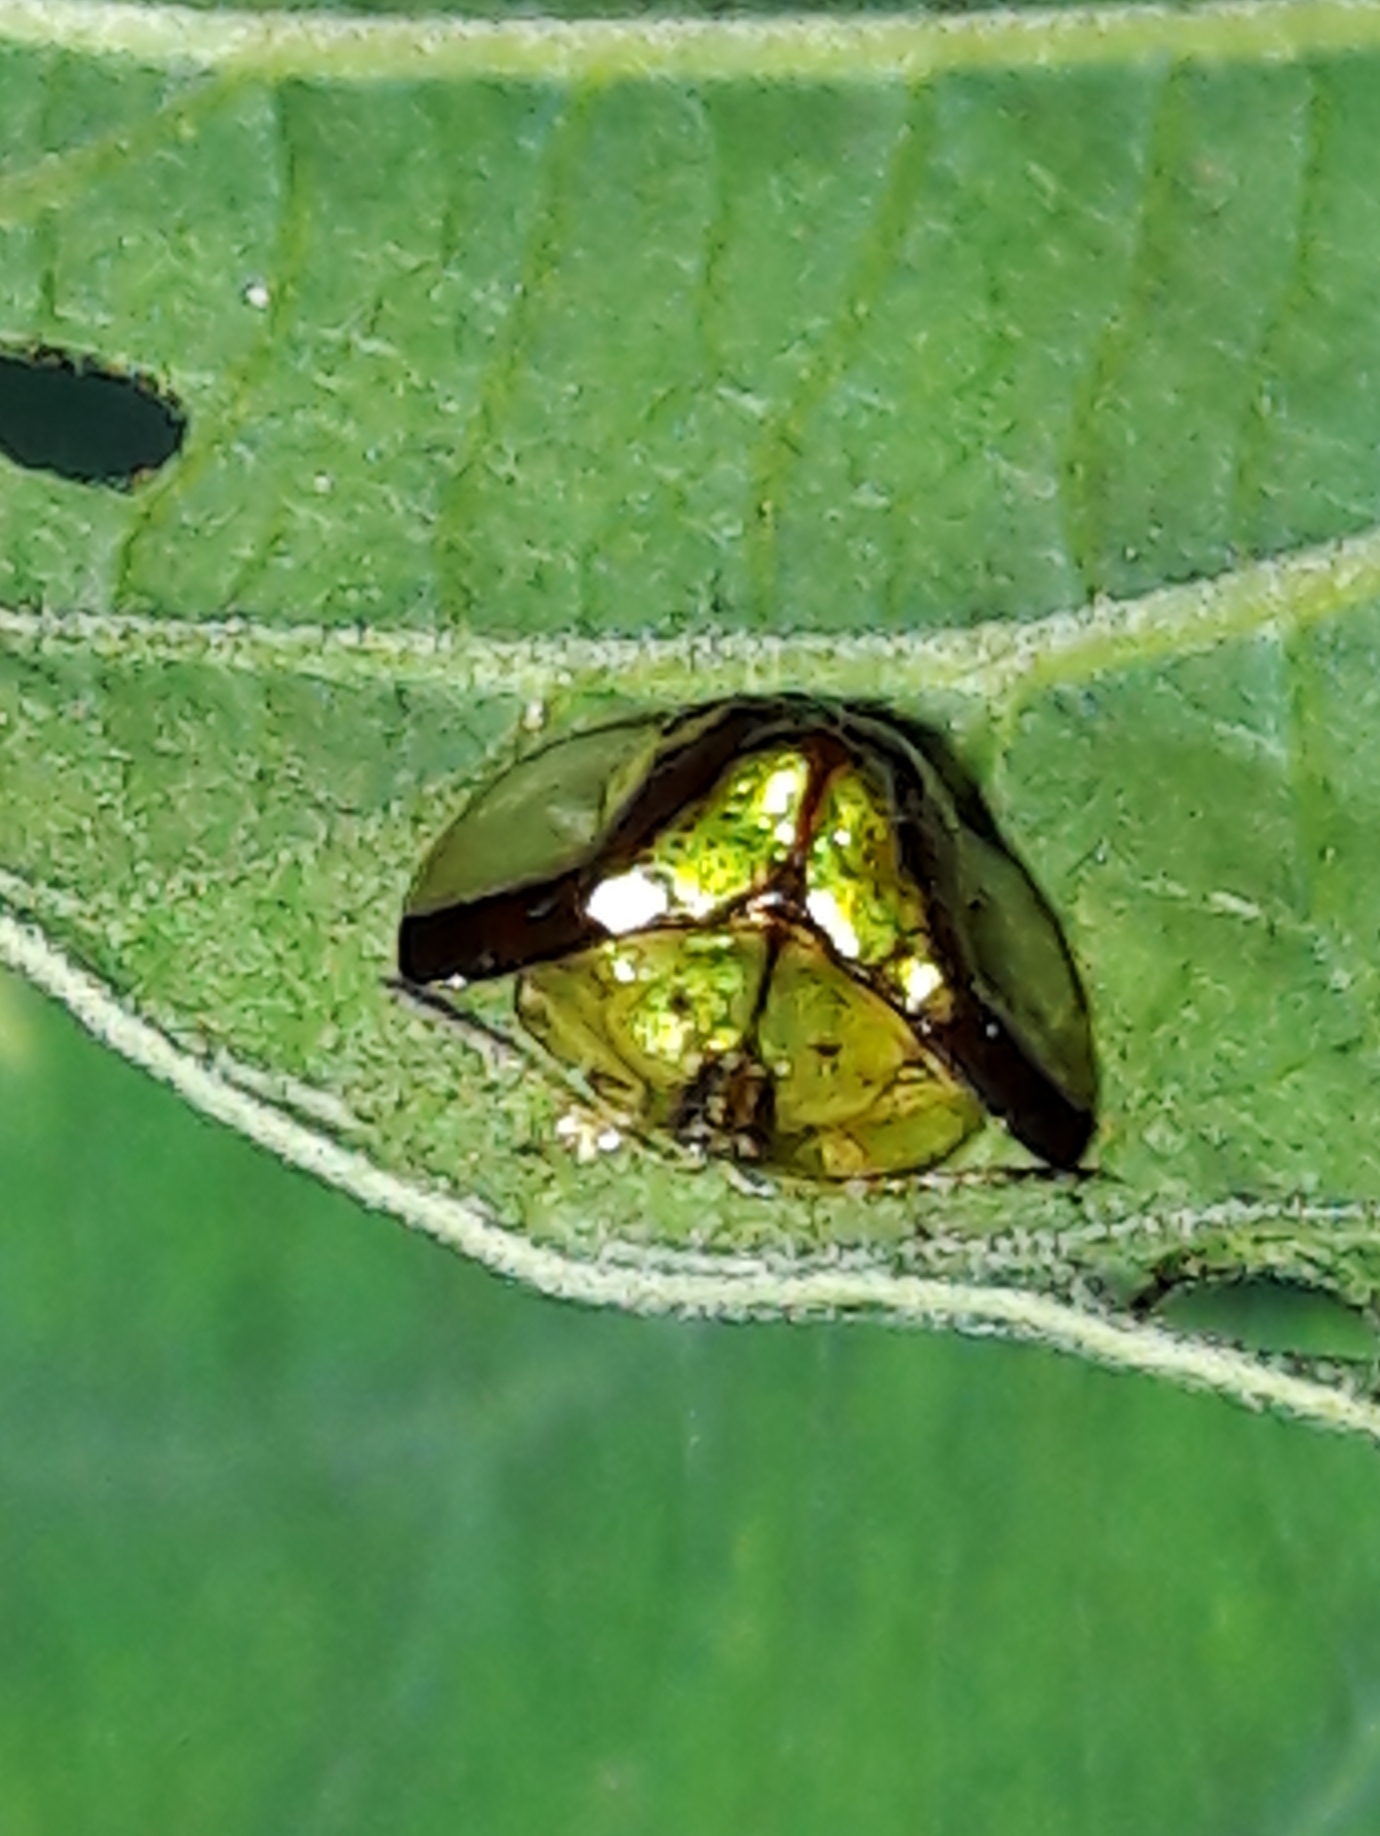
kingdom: Animalia
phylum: Arthropoda
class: Insecta
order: Coleoptera
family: Chrysomelidae
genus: Deloyala
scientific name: Deloyala cruciata
